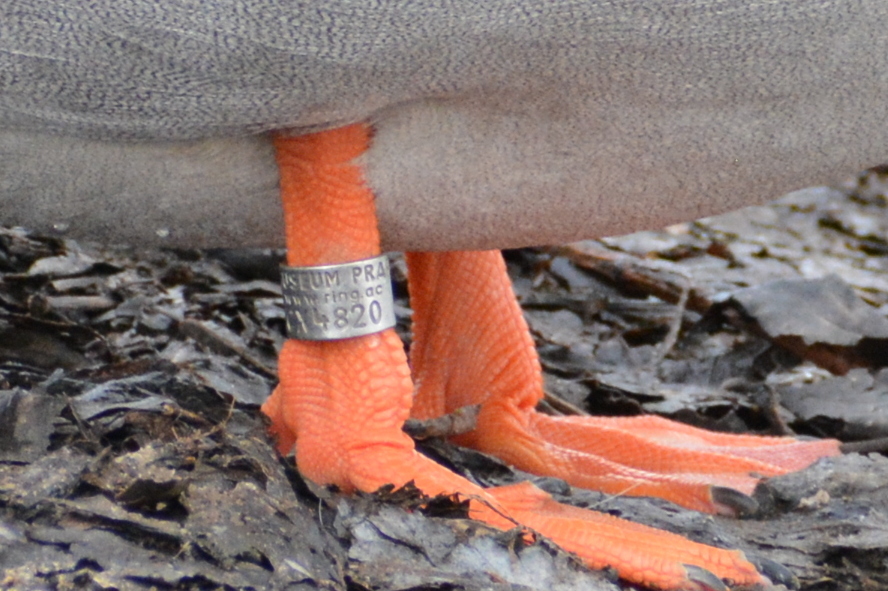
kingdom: Animalia
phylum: Chordata
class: Aves
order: Anseriformes
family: Anatidae
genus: Anas
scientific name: Anas platyrhynchos
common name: Mallard
